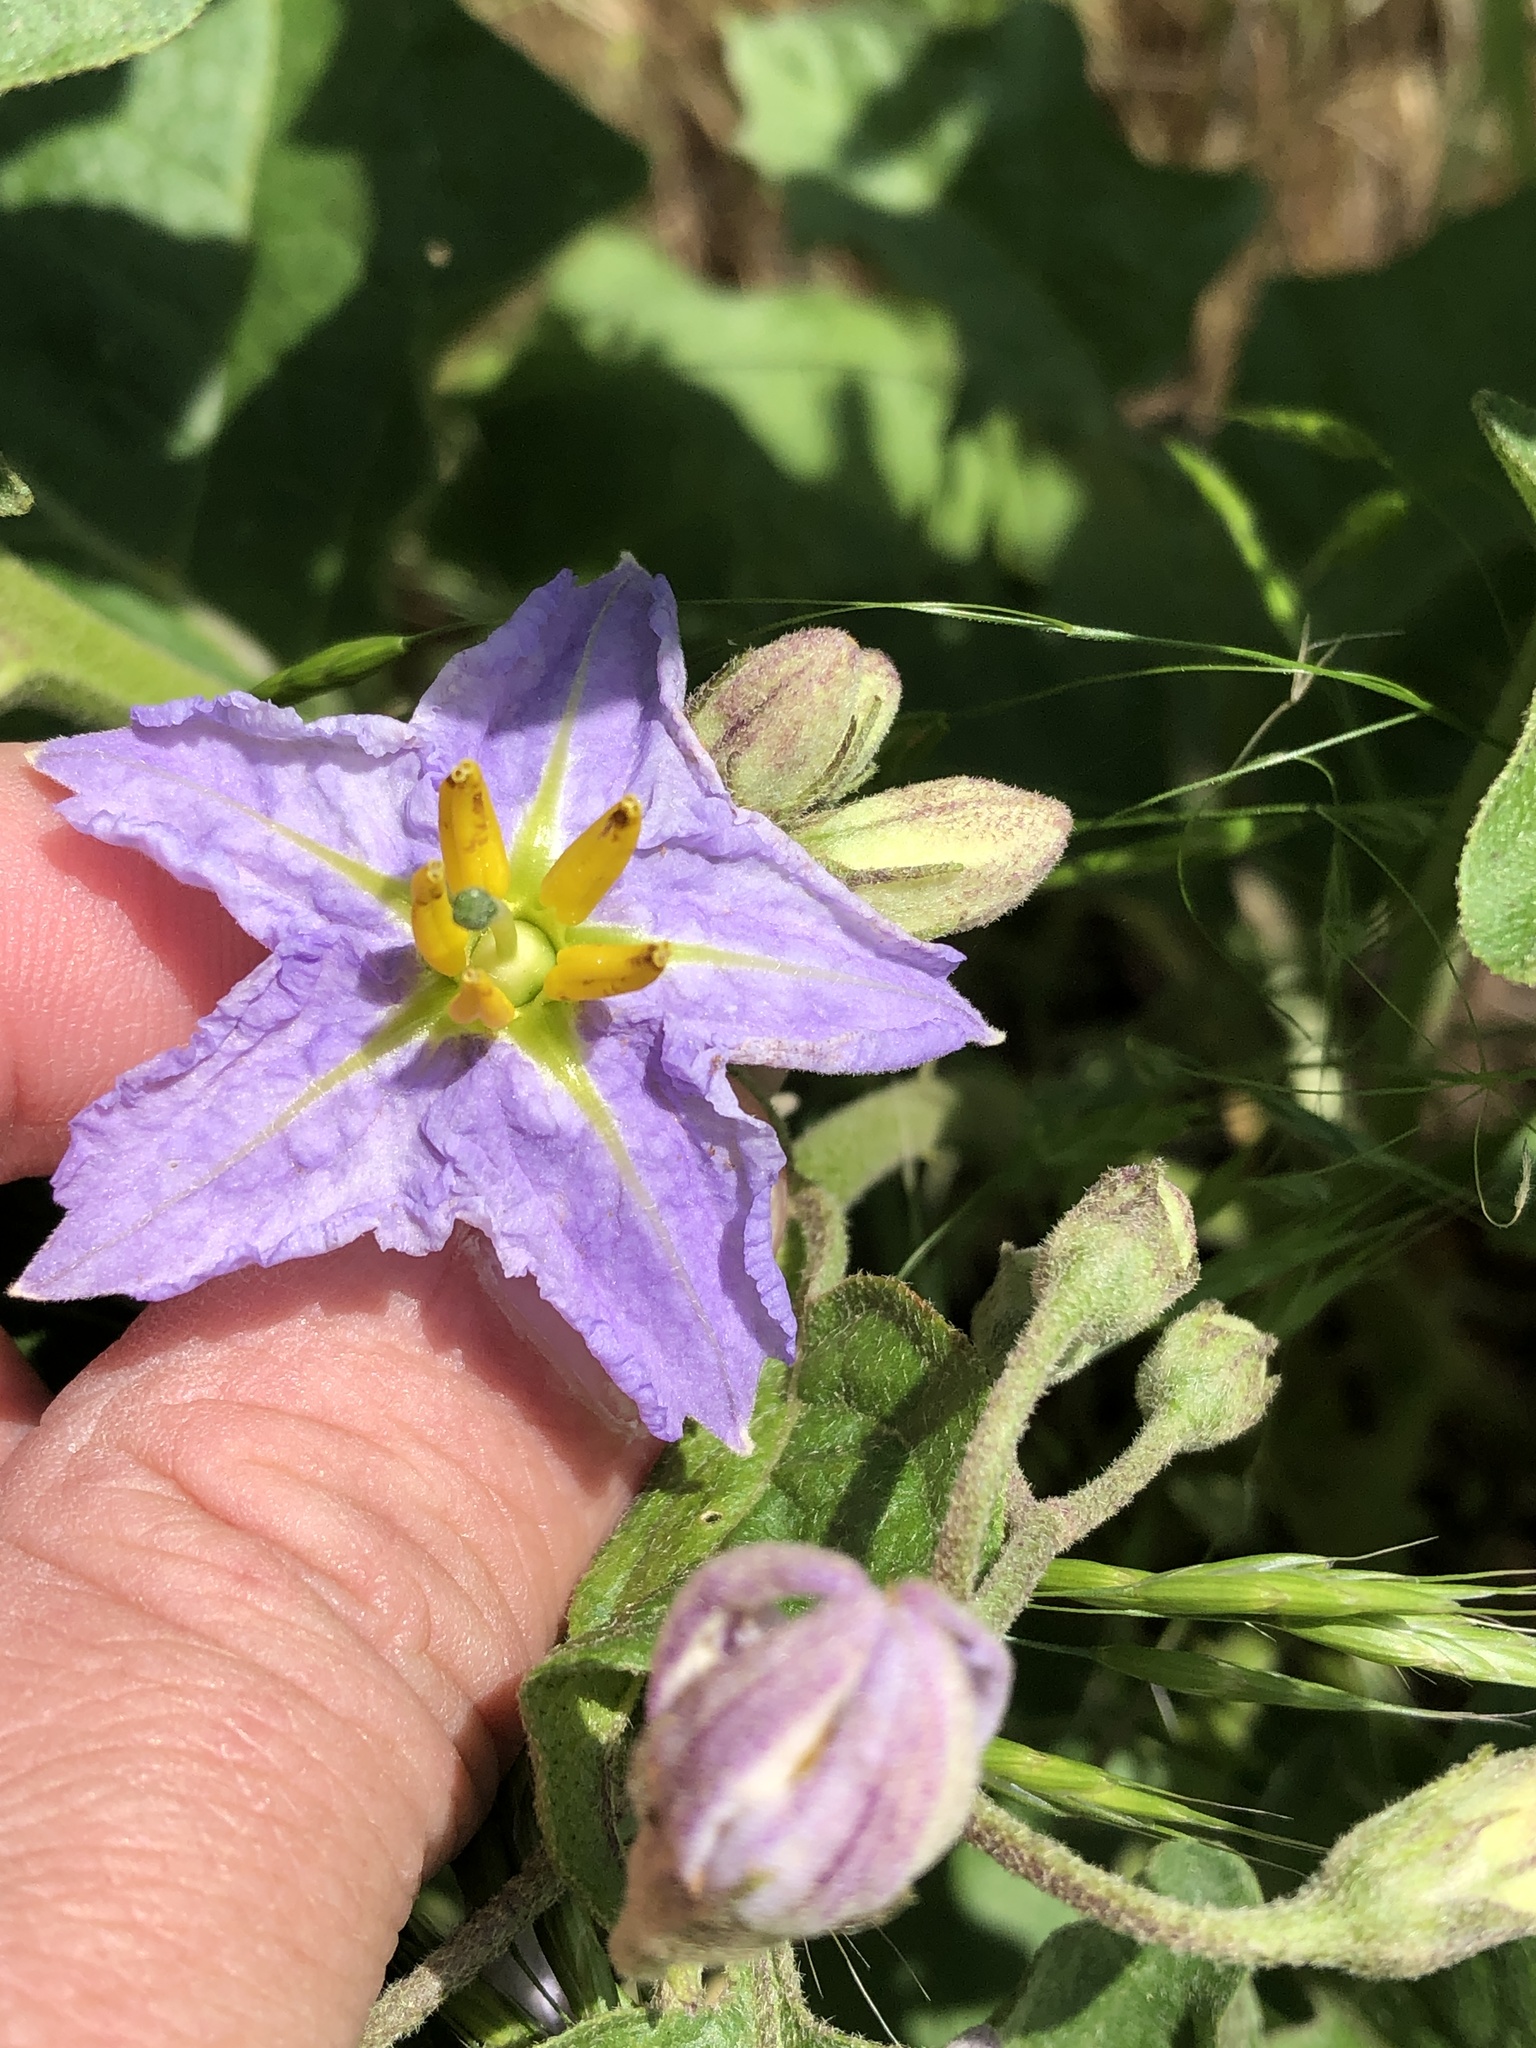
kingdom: Plantae
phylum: Tracheophyta
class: Magnoliopsida
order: Solanales
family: Solanaceae
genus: Solanum
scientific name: Solanum dimidiatum
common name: Carolina horse-nettle
